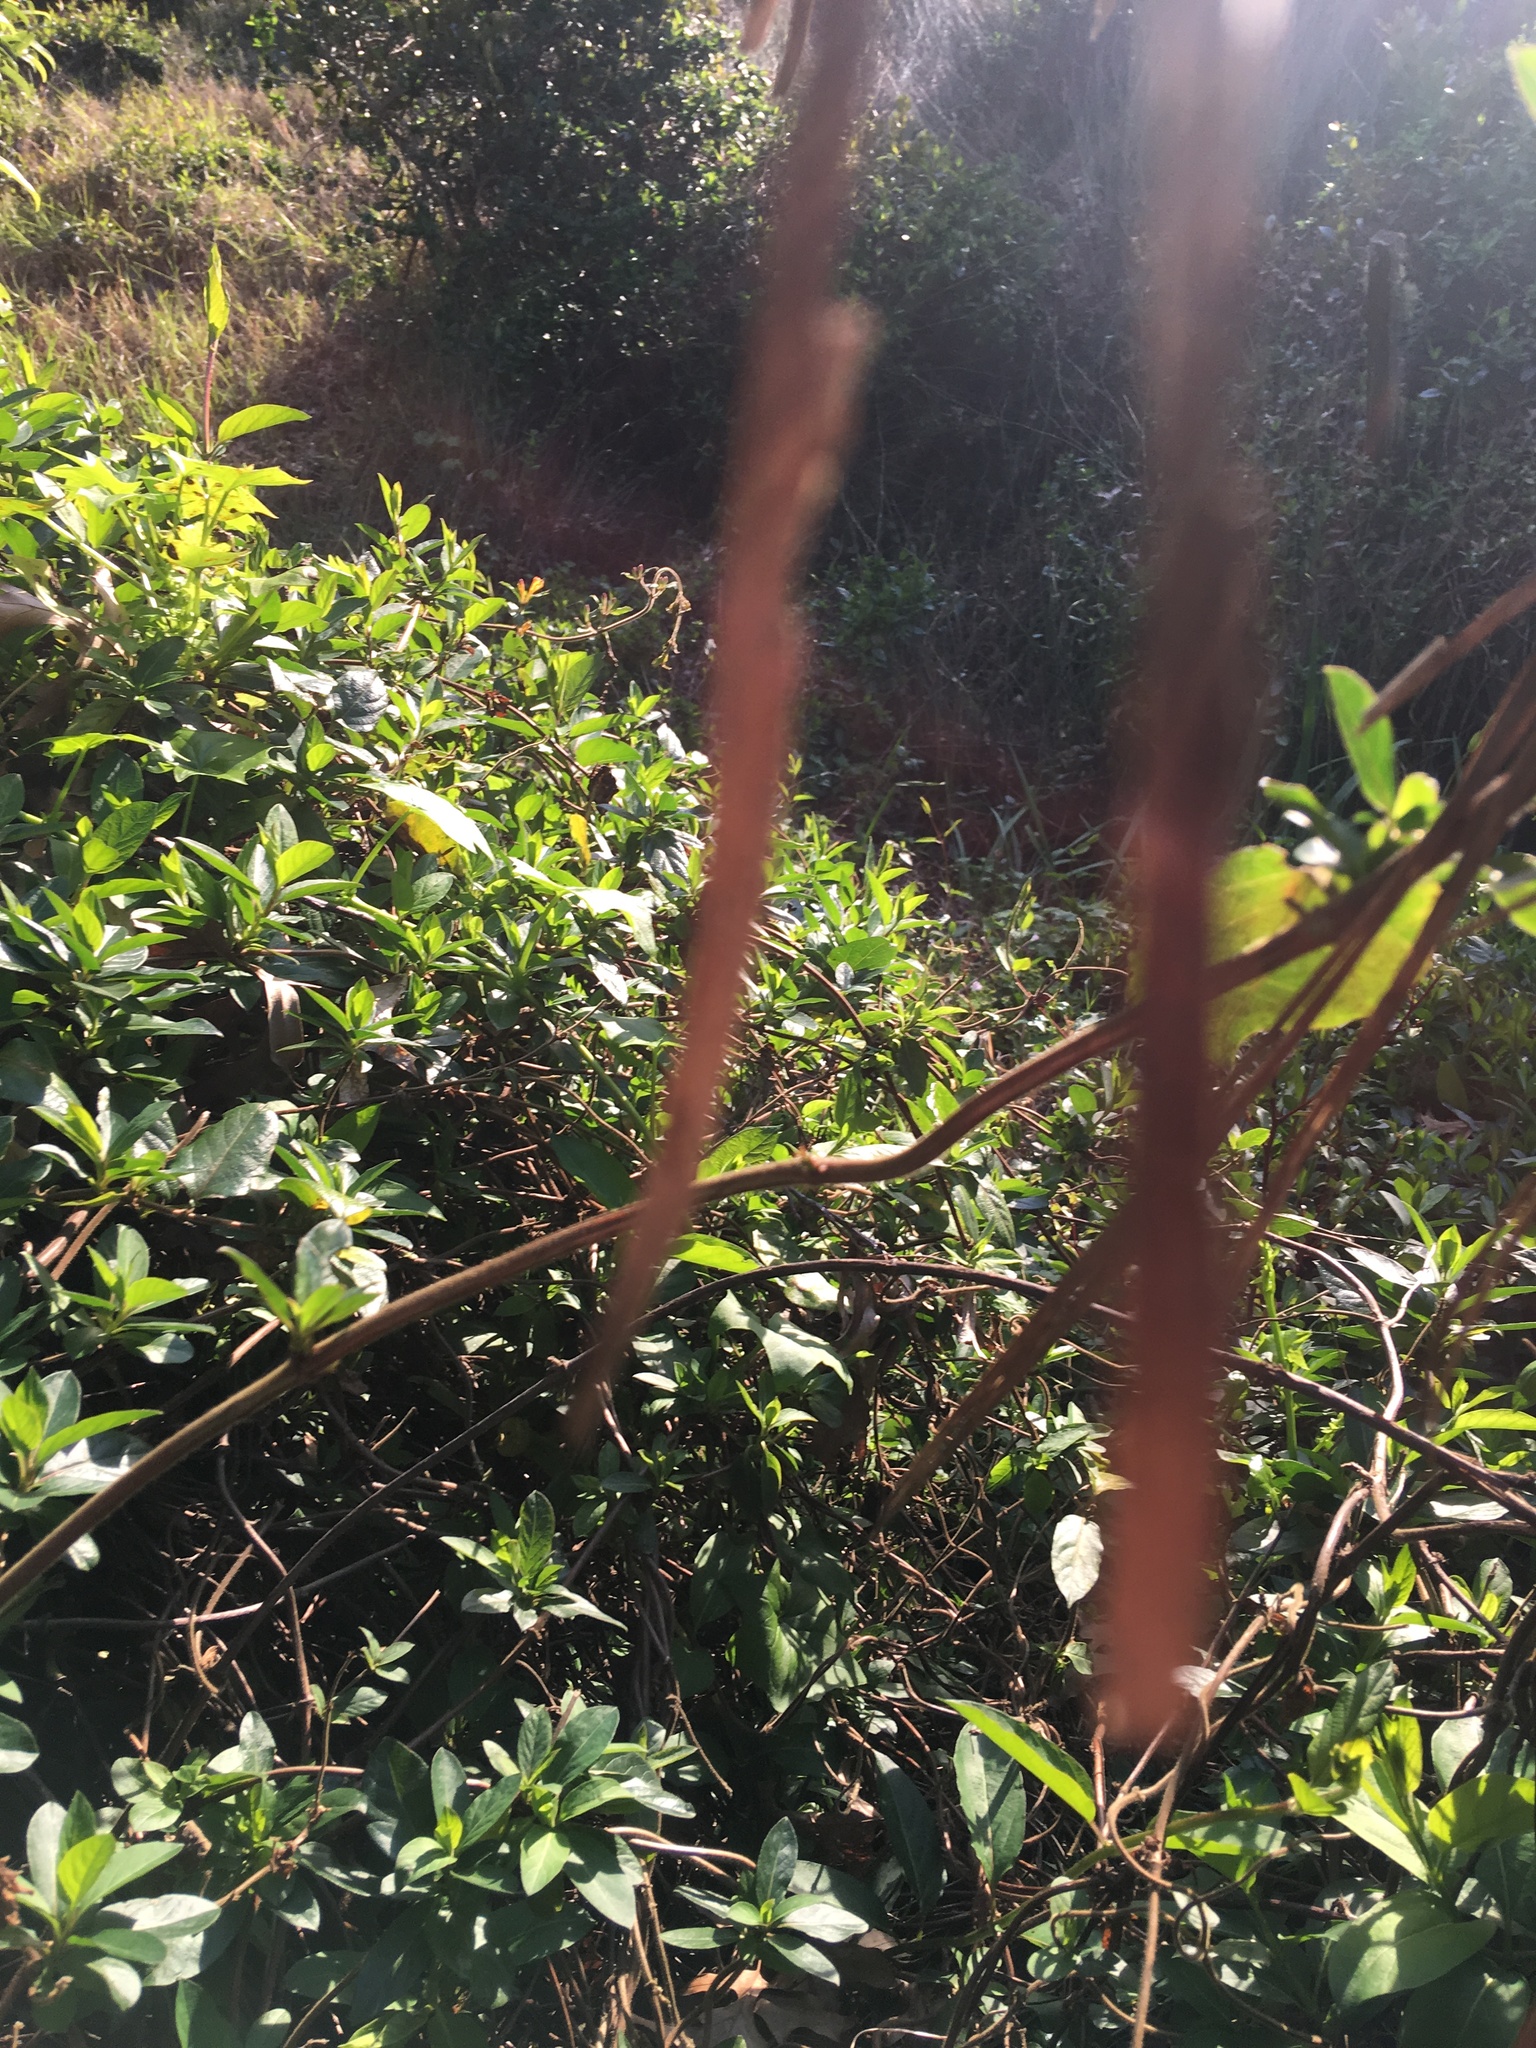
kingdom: Plantae
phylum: Tracheophyta
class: Magnoliopsida
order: Lamiales
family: Acanthaceae
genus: Avicennia
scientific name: Avicennia marina
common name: Gray mangrove
